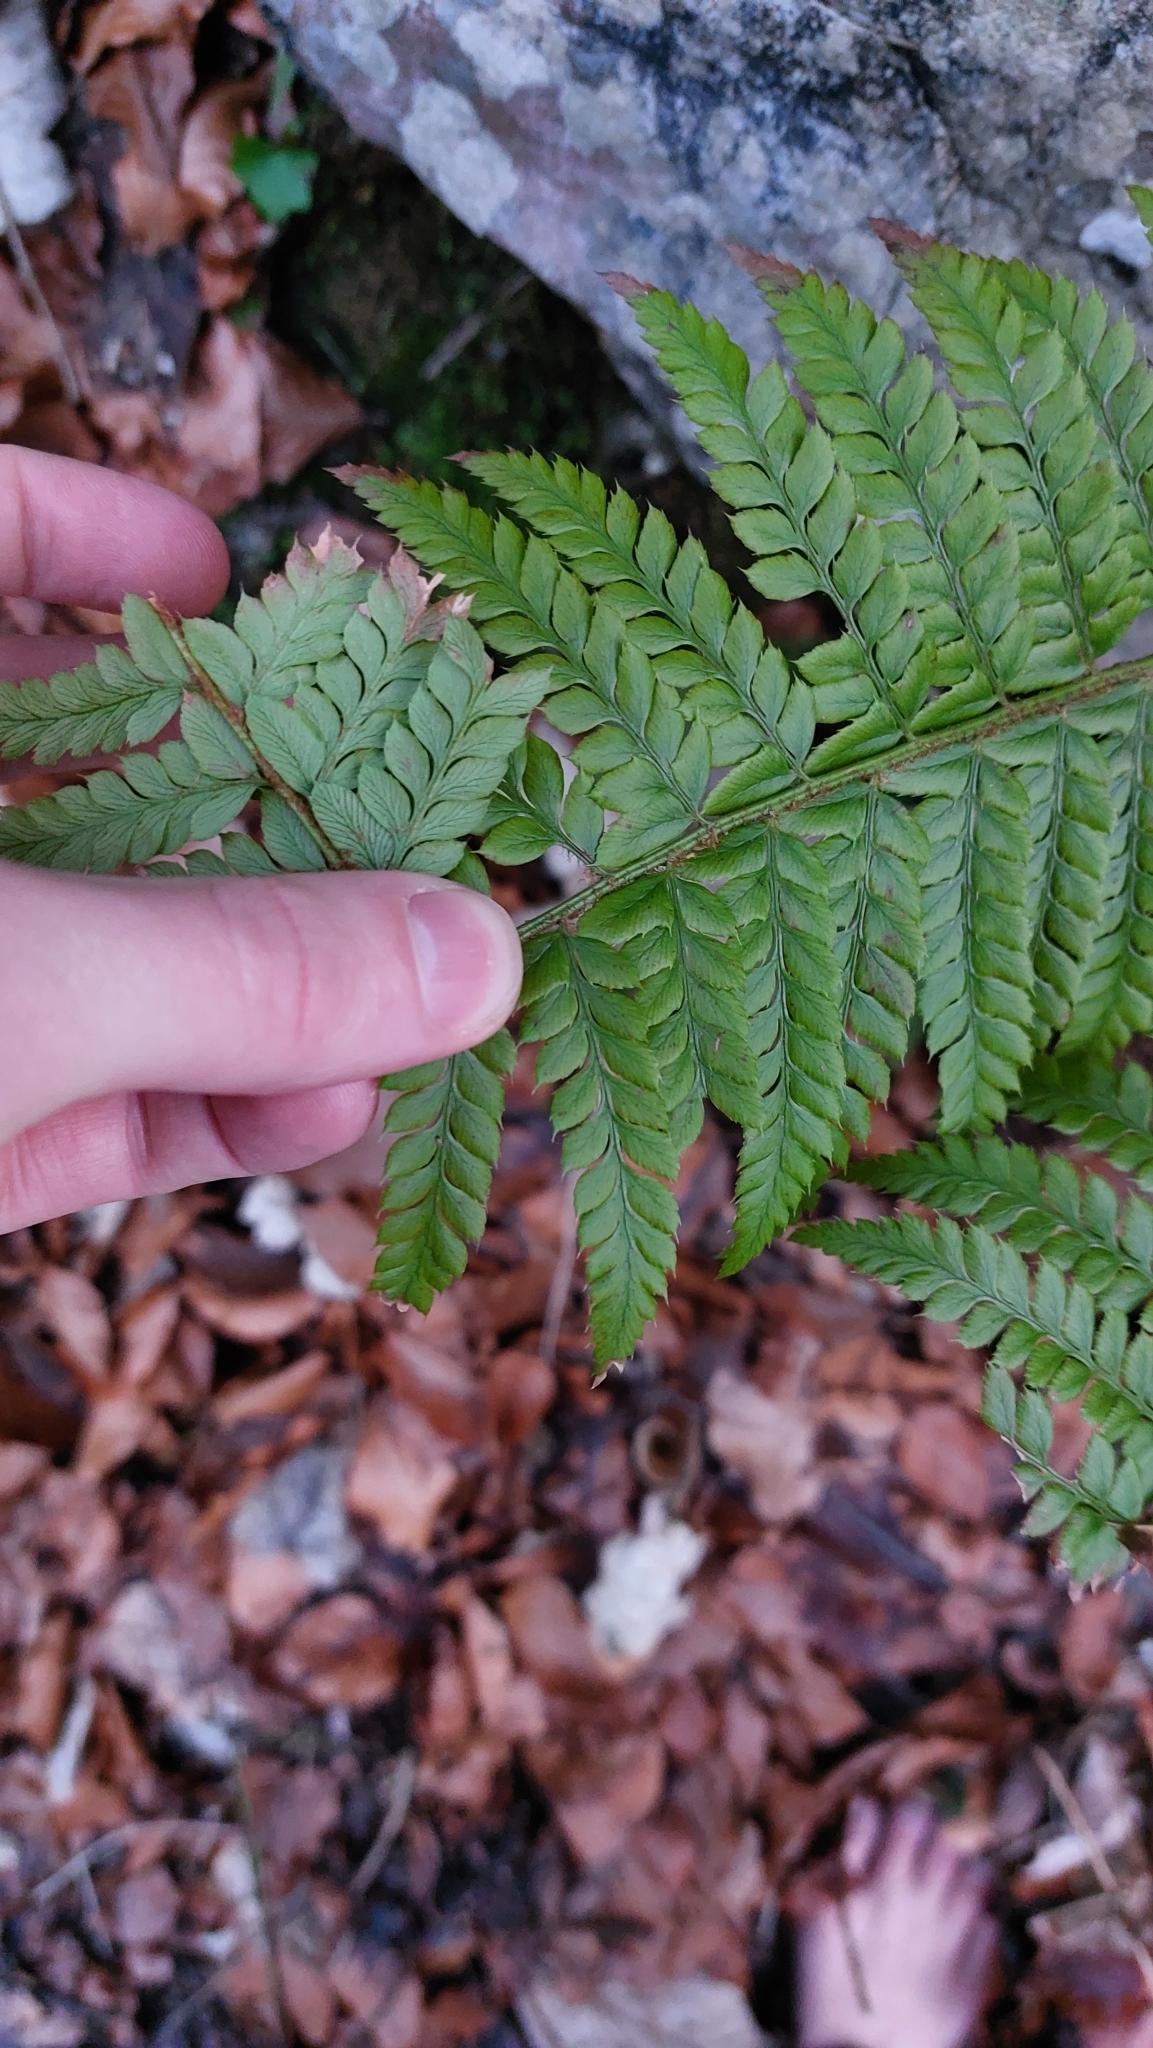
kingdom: Plantae
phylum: Tracheophyta
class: Polypodiopsida
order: Polypodiales
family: Dryopteridaceae
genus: Polystichum
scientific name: Polystichum aculeatum
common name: Hard shield-fern
